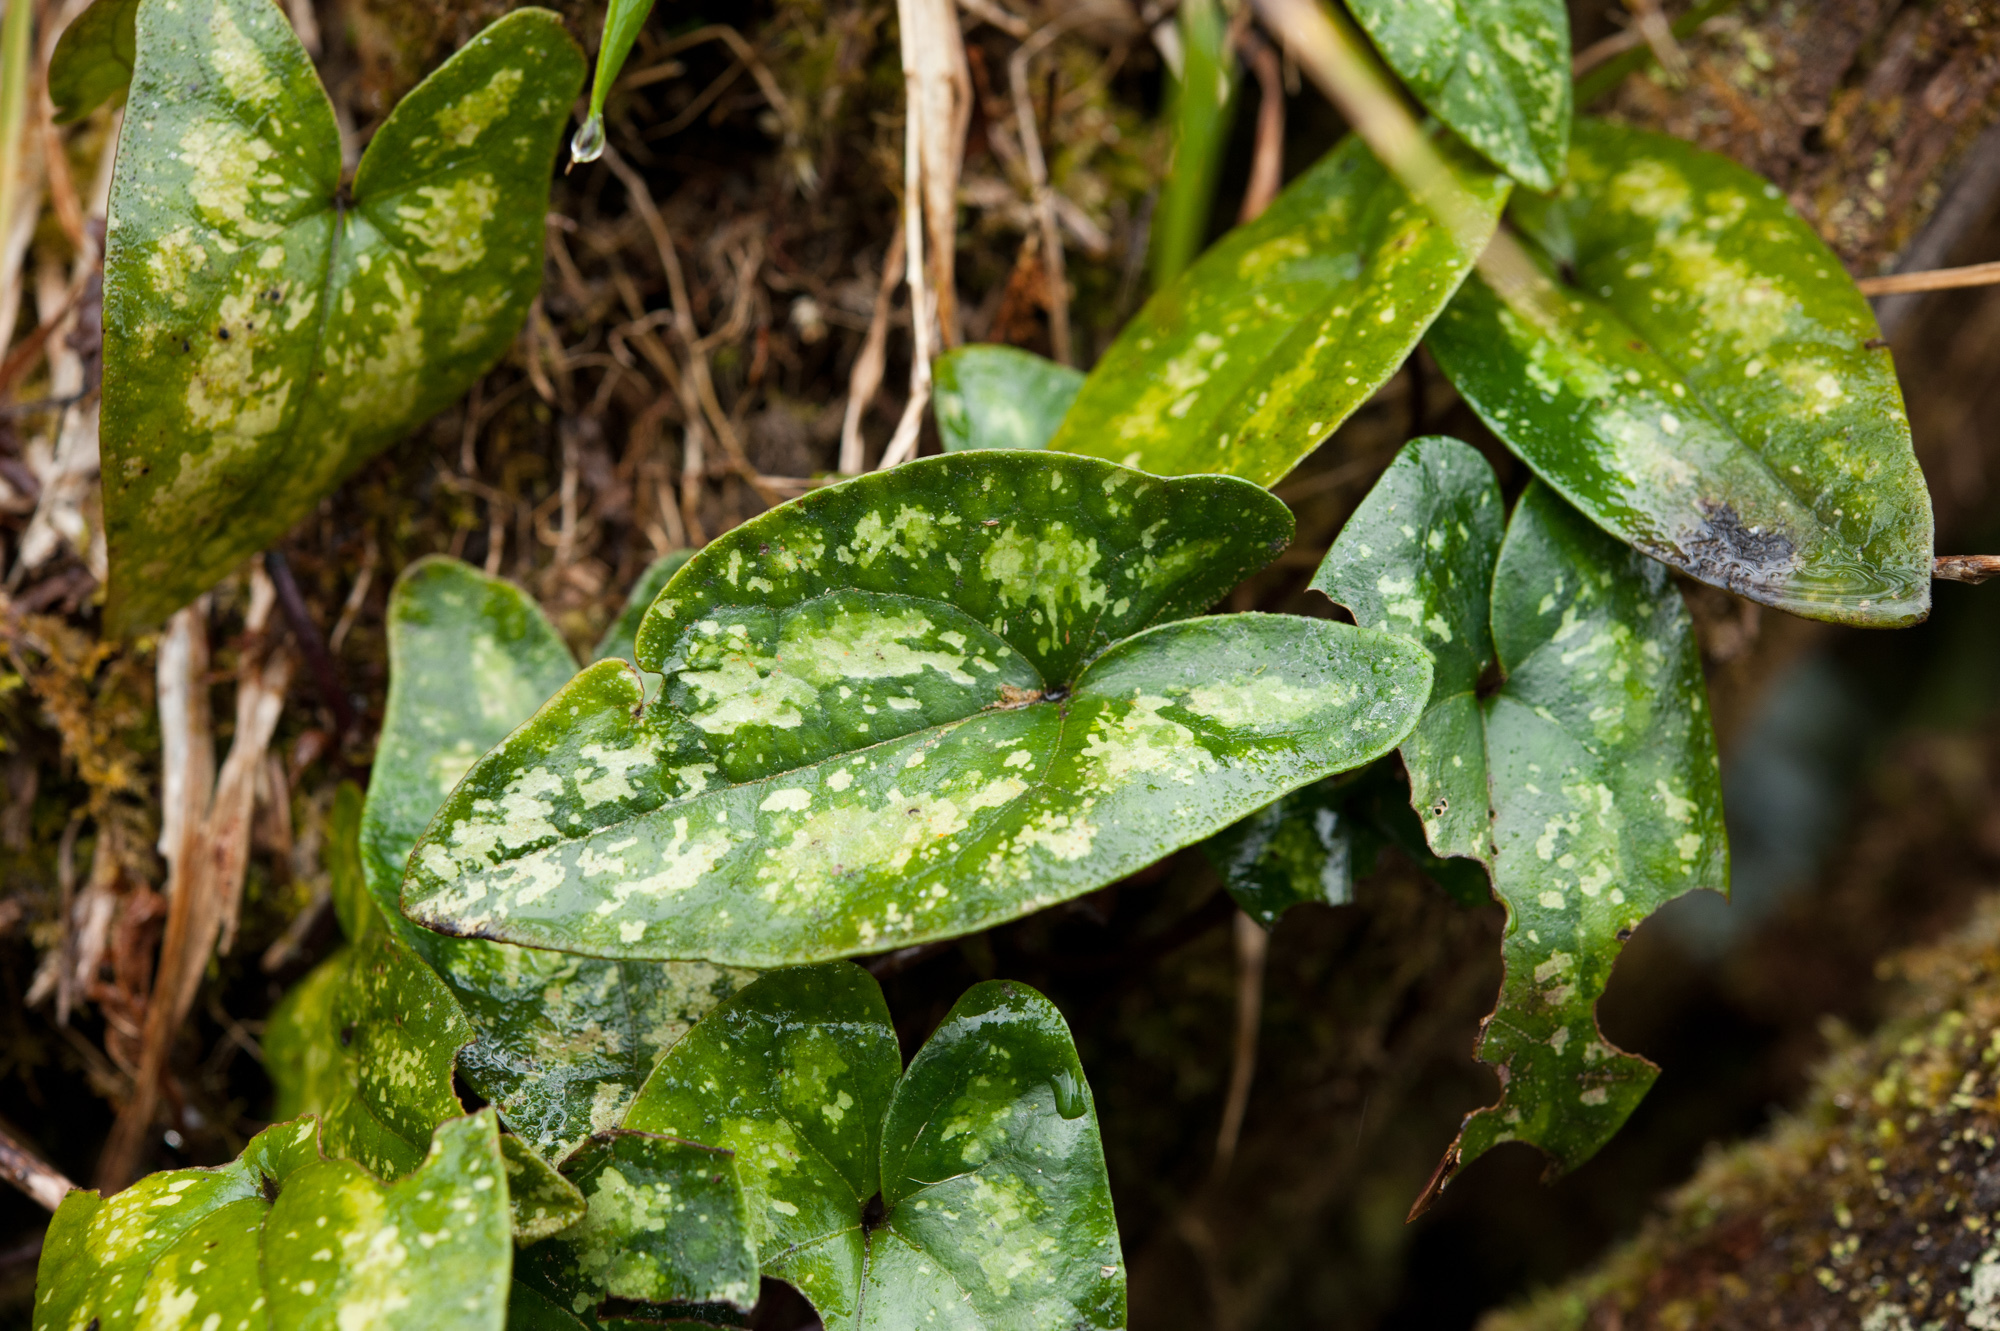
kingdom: Plantae
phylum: Tracheophyta
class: Magnoliopsida
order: Piperales
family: Aristolochiaceae
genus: Asarum
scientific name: Asarum taipingshanianum
